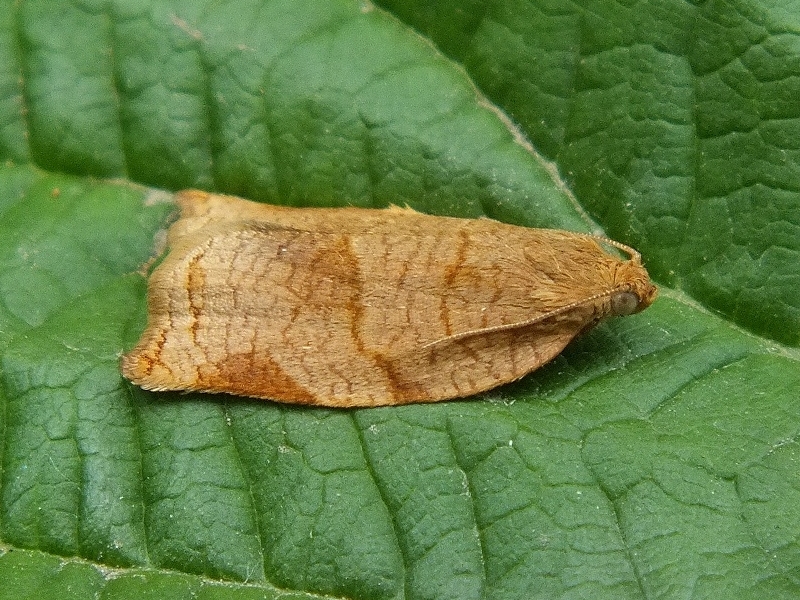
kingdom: Animalia
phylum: Arthropoda
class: Insecta
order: Lepidoptera
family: Tortricidae
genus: Archips
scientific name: Archips rosana
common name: Rose tortrix
